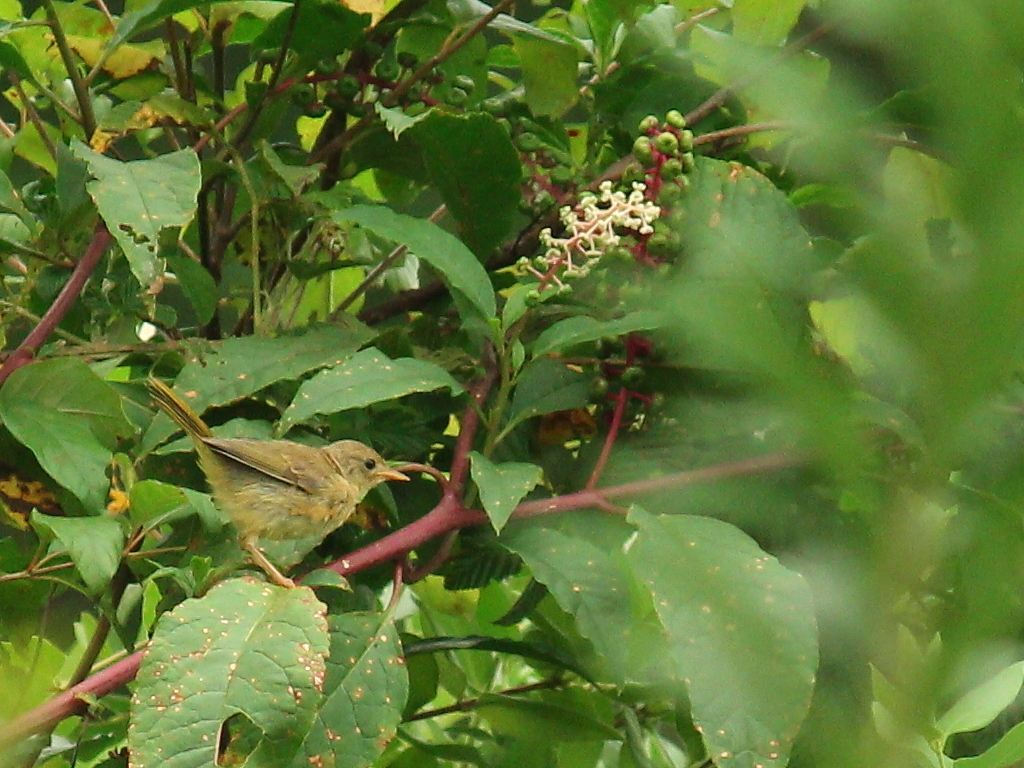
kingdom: Animalia
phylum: Chordata
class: Aves
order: Passeriformes
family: Parulidae
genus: Geothlypis
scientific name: Geothlypis trichas
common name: Common yellowthroat
